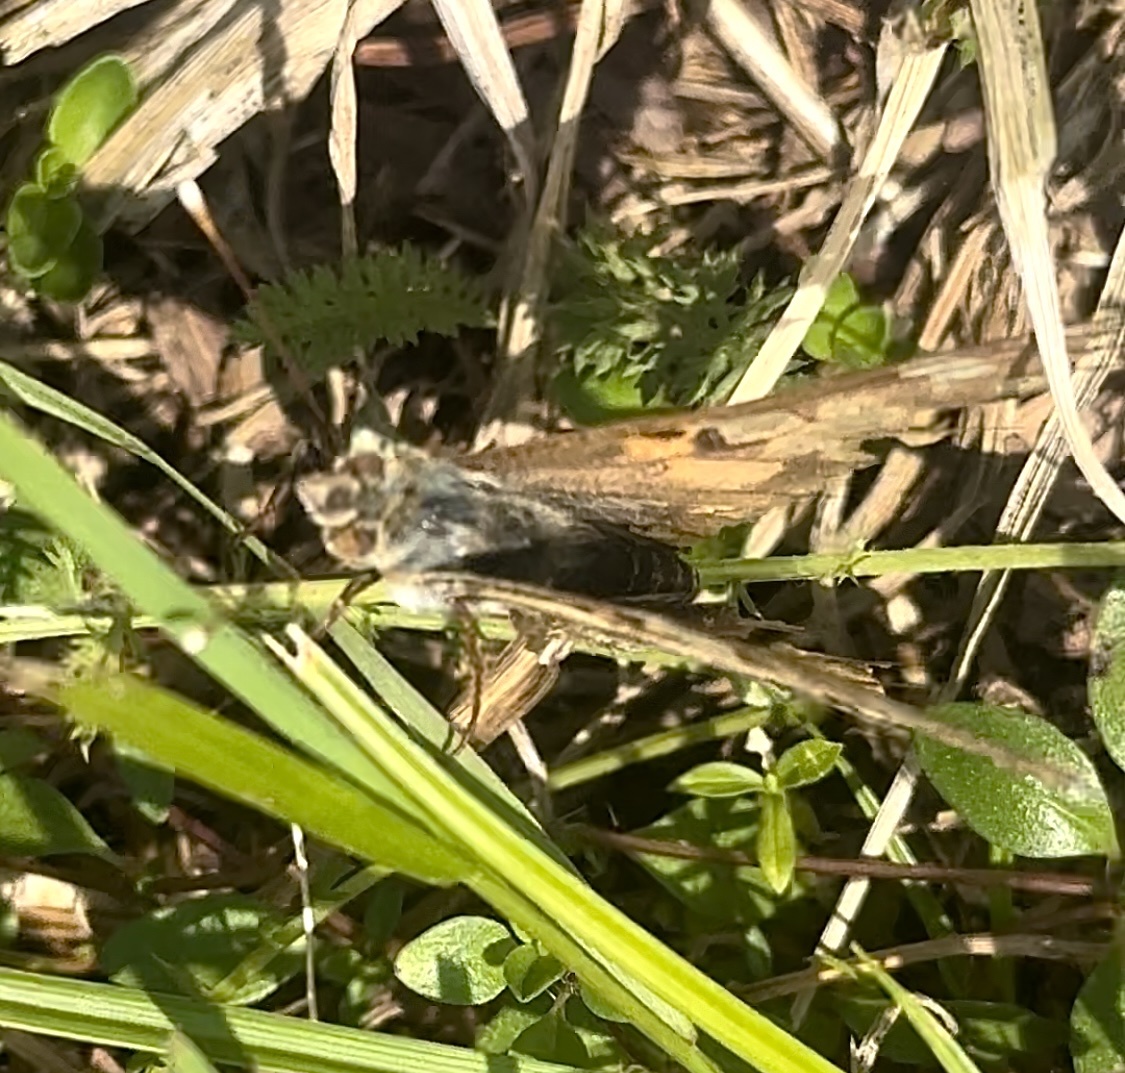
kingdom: Animalia
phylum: Arthropoda
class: Insecta
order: Lepidoptera
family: Nymphalidae
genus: Vanessa
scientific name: Vanessa cardui
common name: Painted lady
